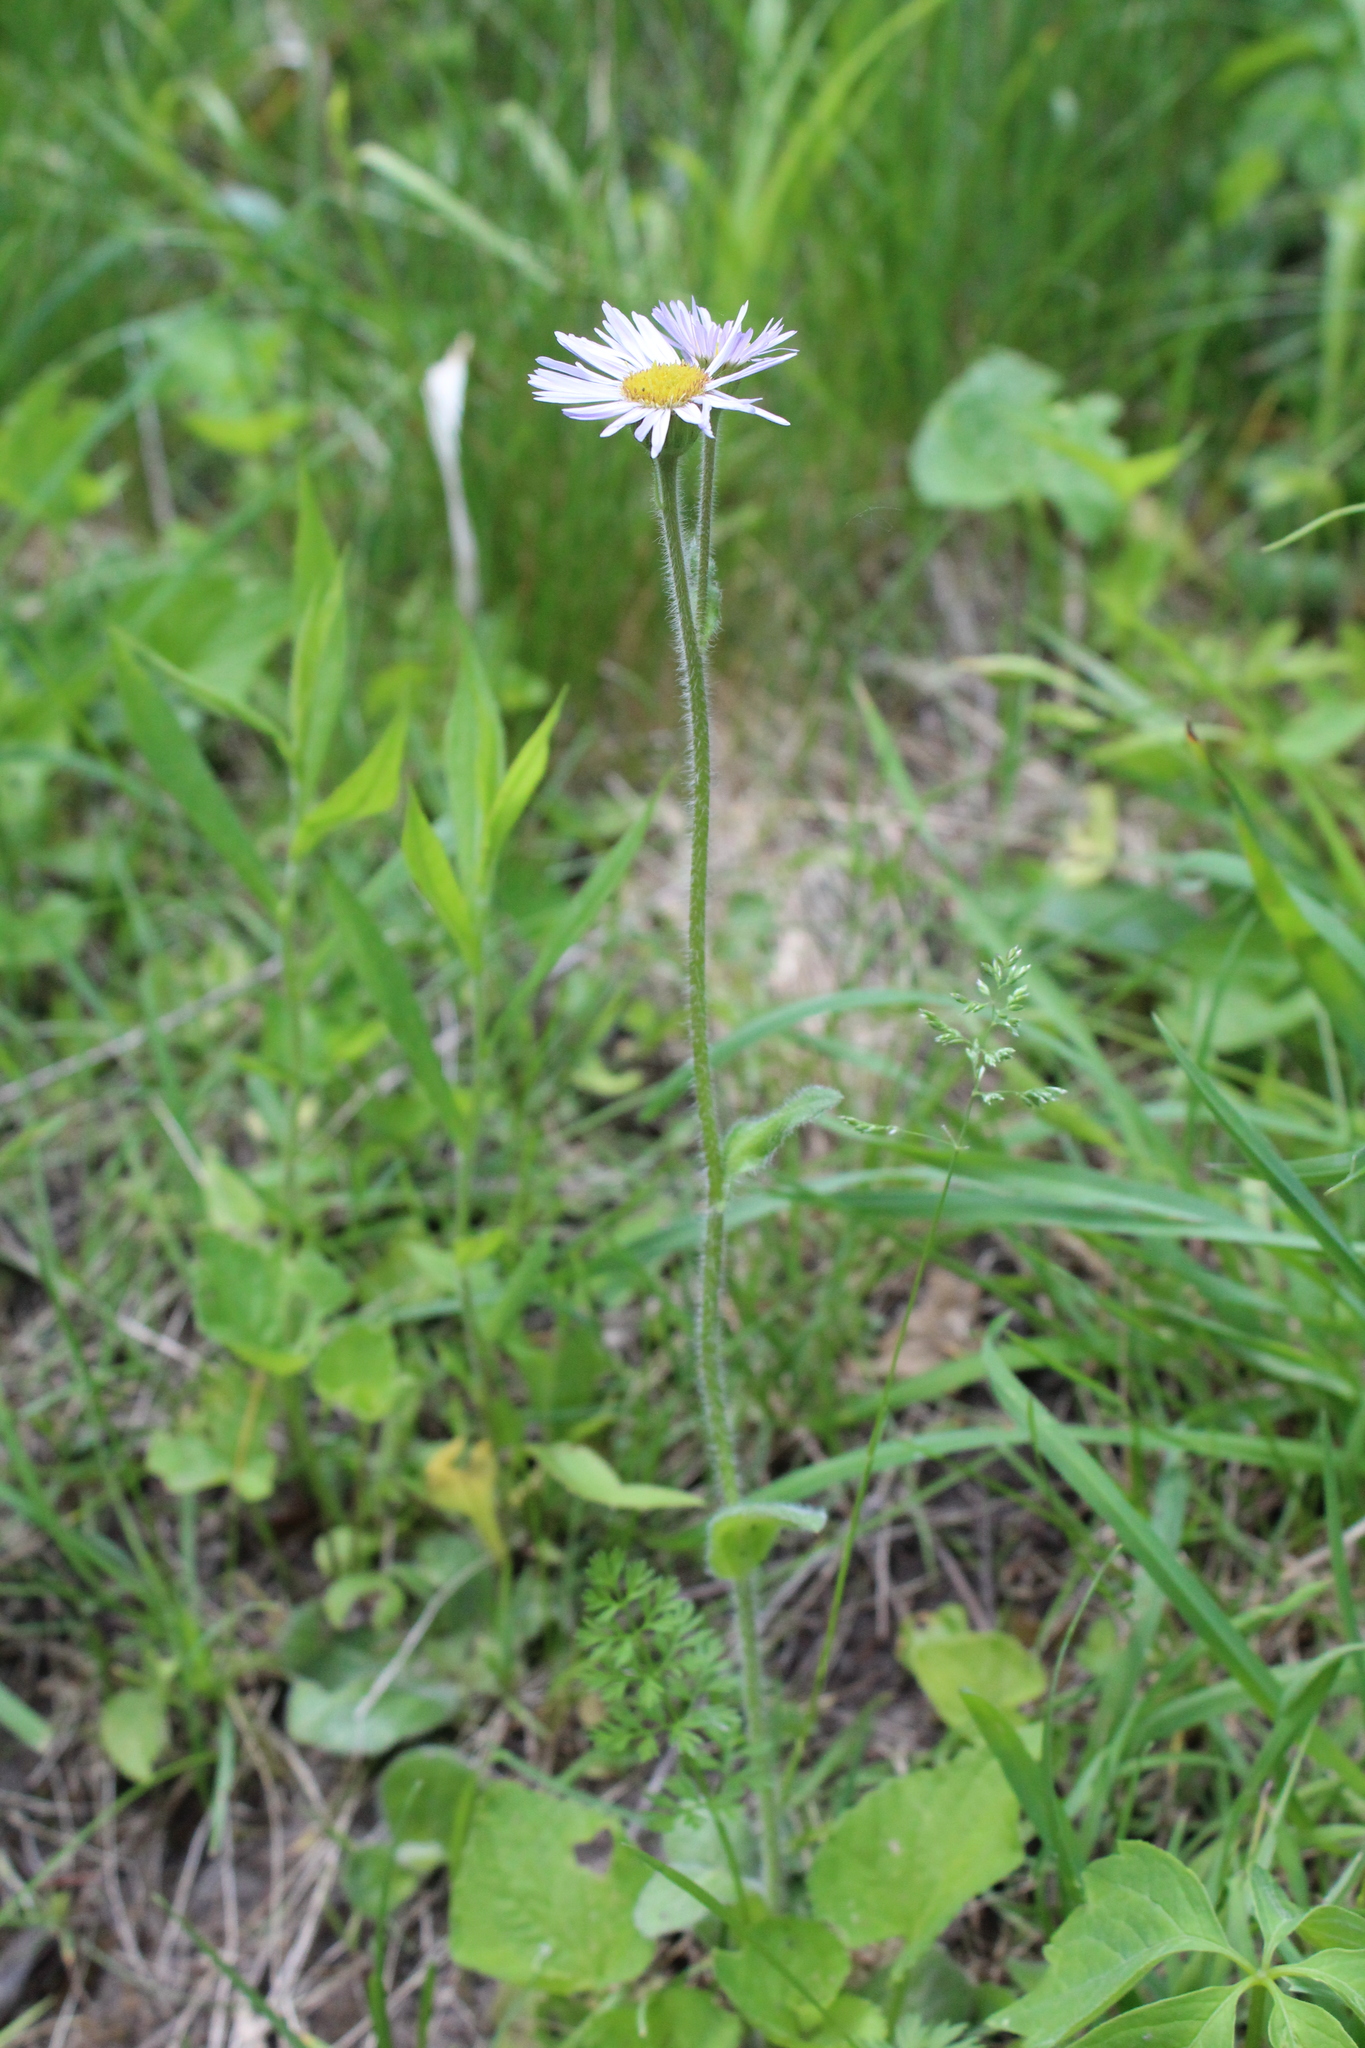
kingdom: Plantae
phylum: Tracheophyta
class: Magnoliopsida
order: Asterales
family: Asteraceae
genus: Erigeron
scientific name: Erigeron pulchellus
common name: Hairy fleabane
